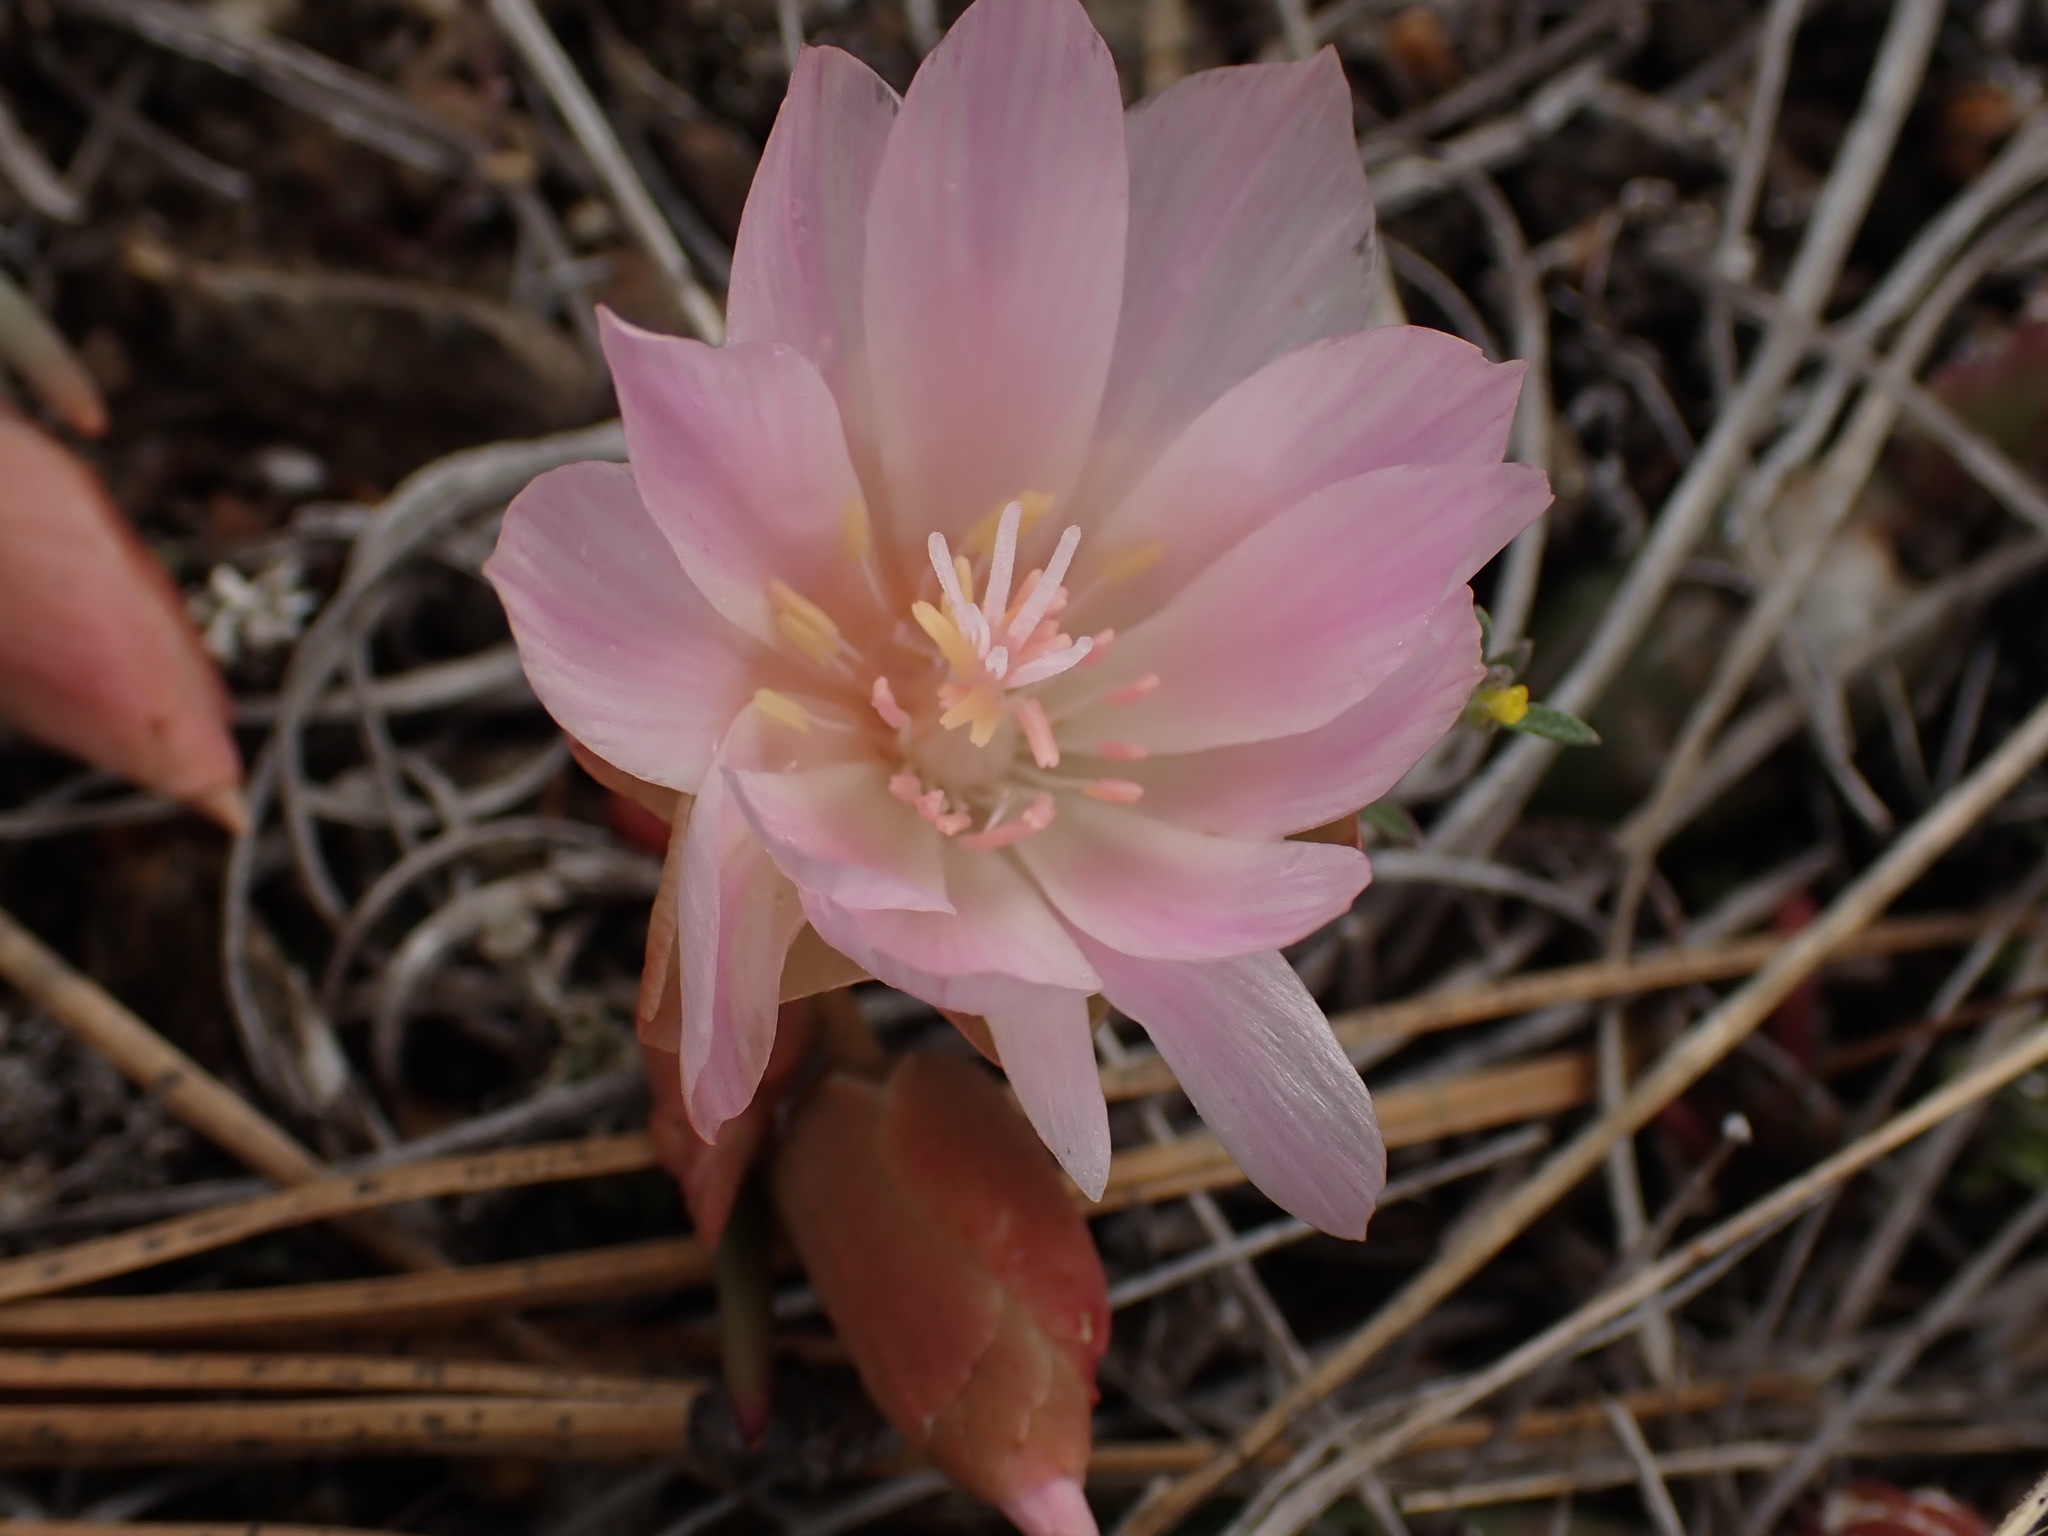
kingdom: Plantae
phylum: Tracheophyta
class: Magnoliopsida
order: Caryophyllales
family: Montiaceae
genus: Lewisia
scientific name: Lewisia rediviva
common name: Bitter-root
